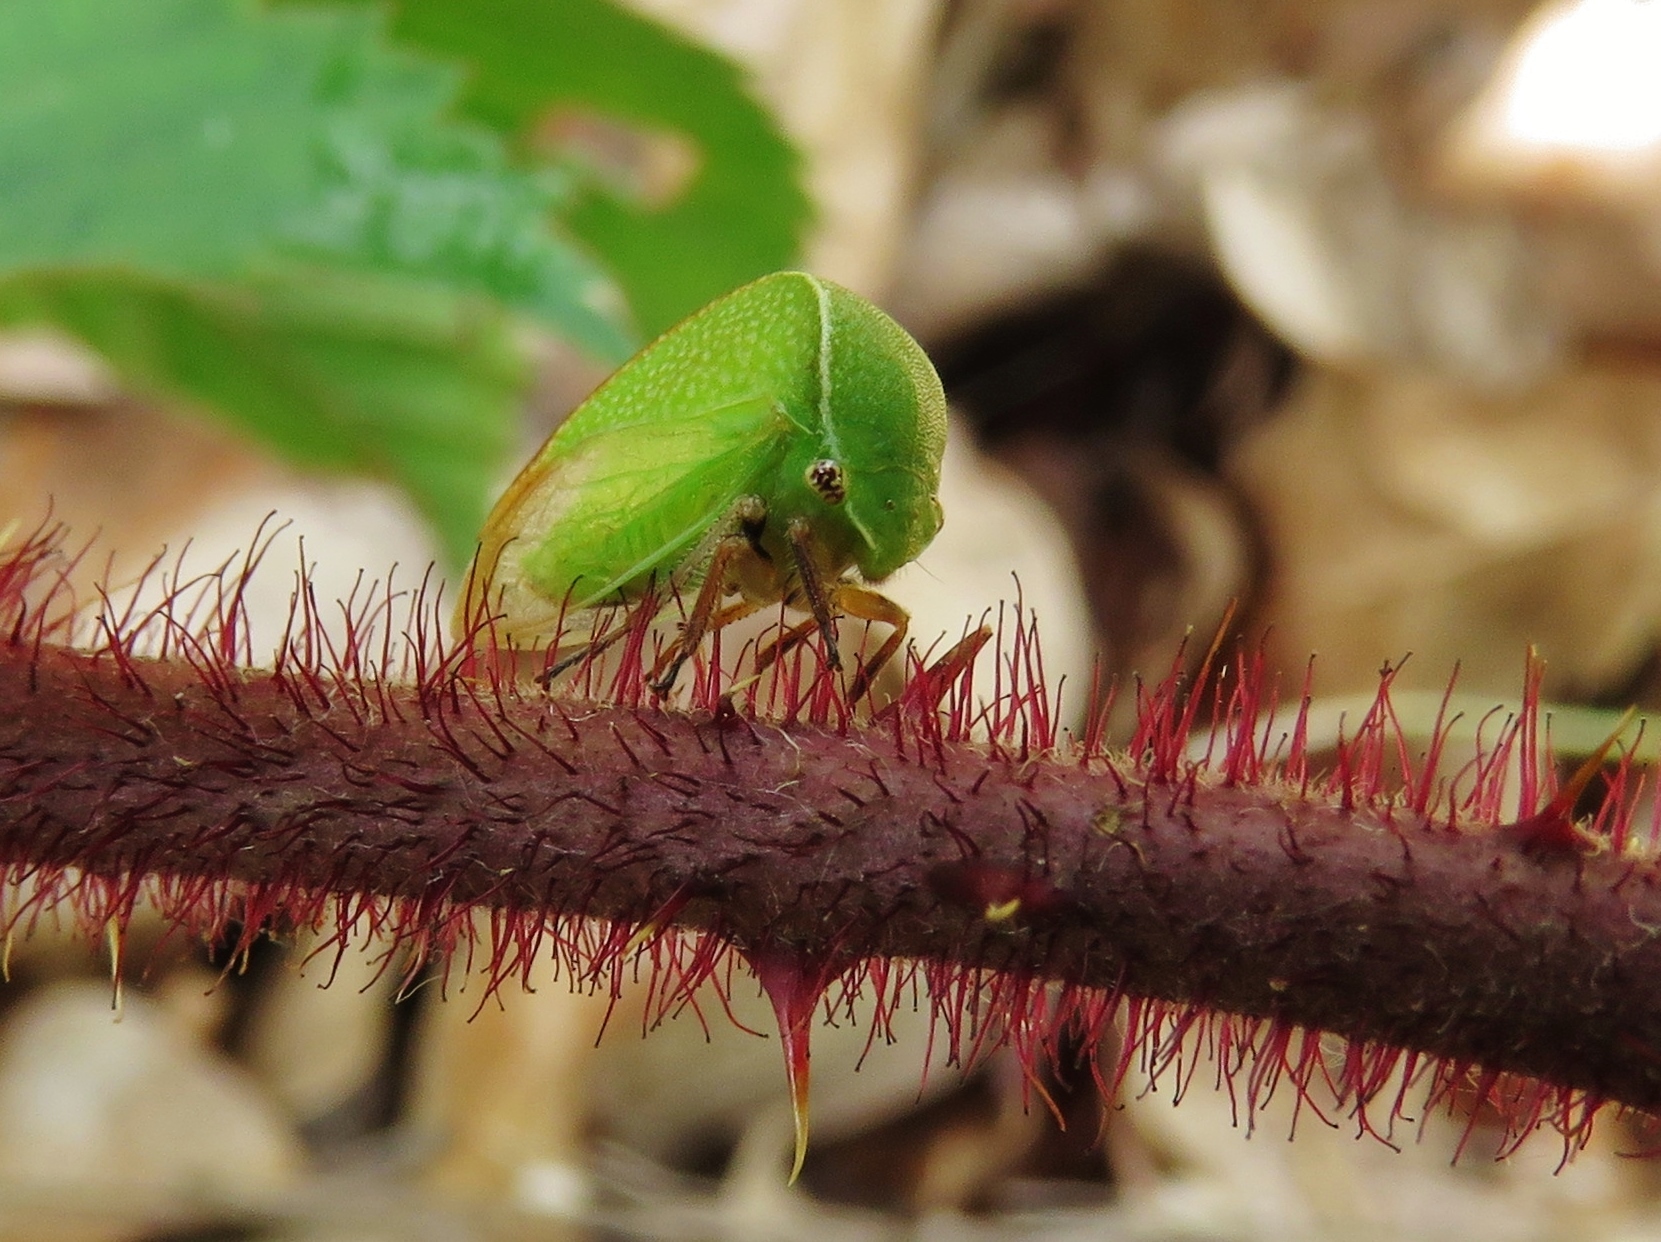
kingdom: Animalia
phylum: Arthropoda
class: Insecta
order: Hemiptera
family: Membracidae
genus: Tortistilus
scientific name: Tortistilus inermis
